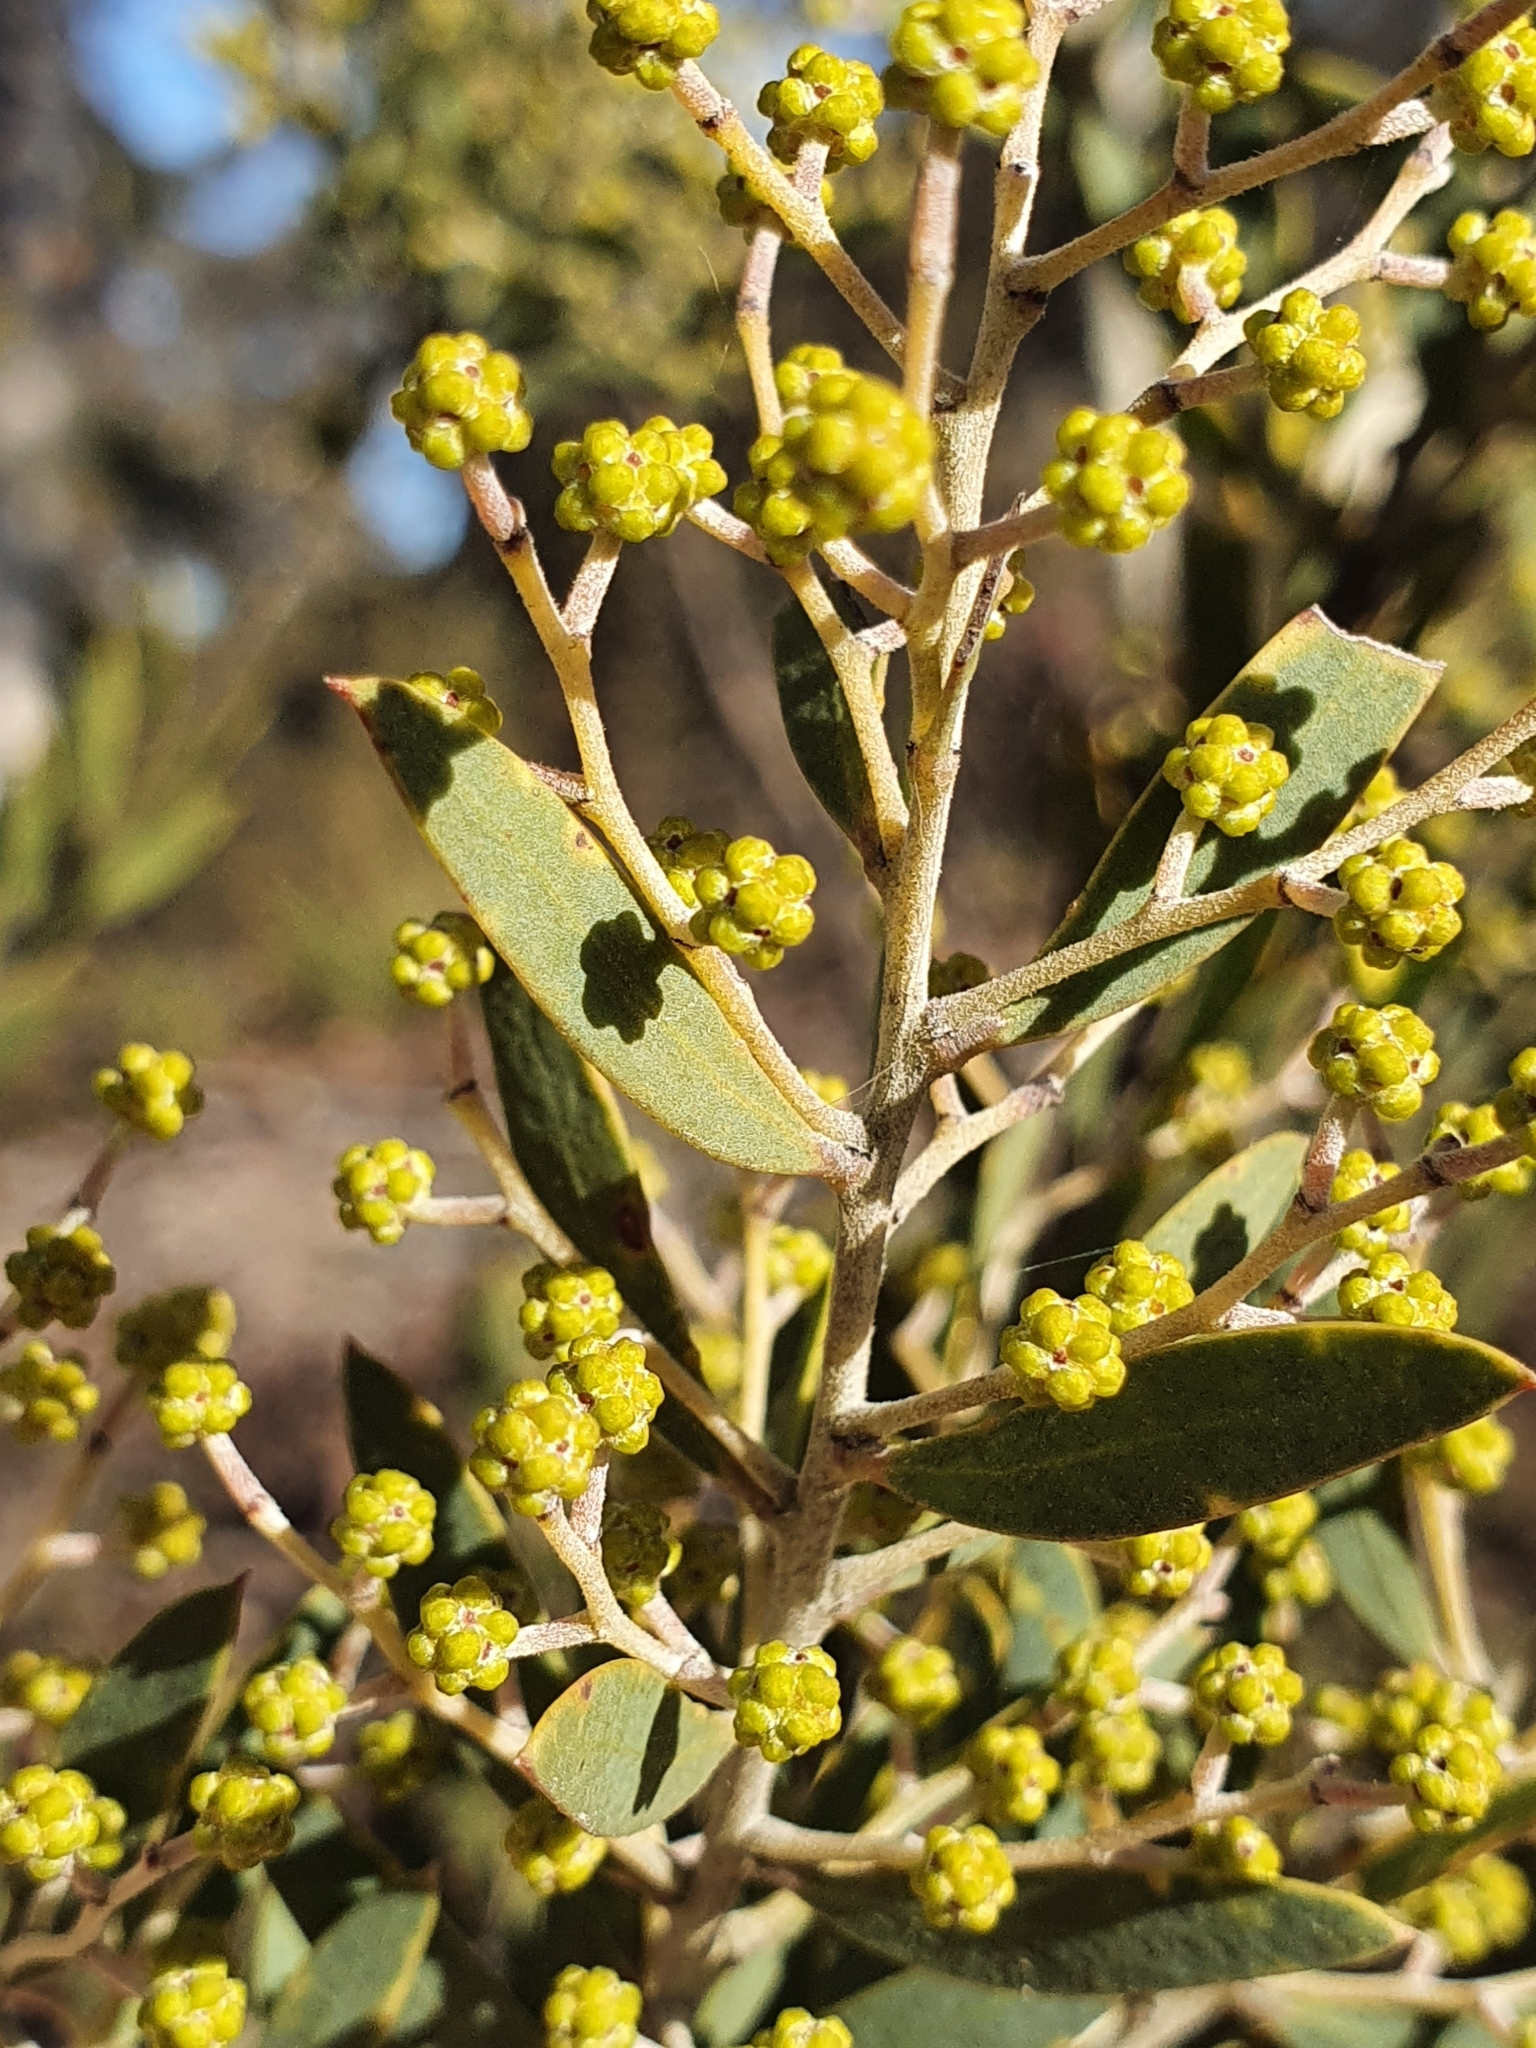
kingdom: Plantae
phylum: Tracheophyta
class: Magnoliopsida
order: Fabales
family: Fabaceae
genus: Acacia
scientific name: Acacia kybeanensis
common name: Kybean wattle
